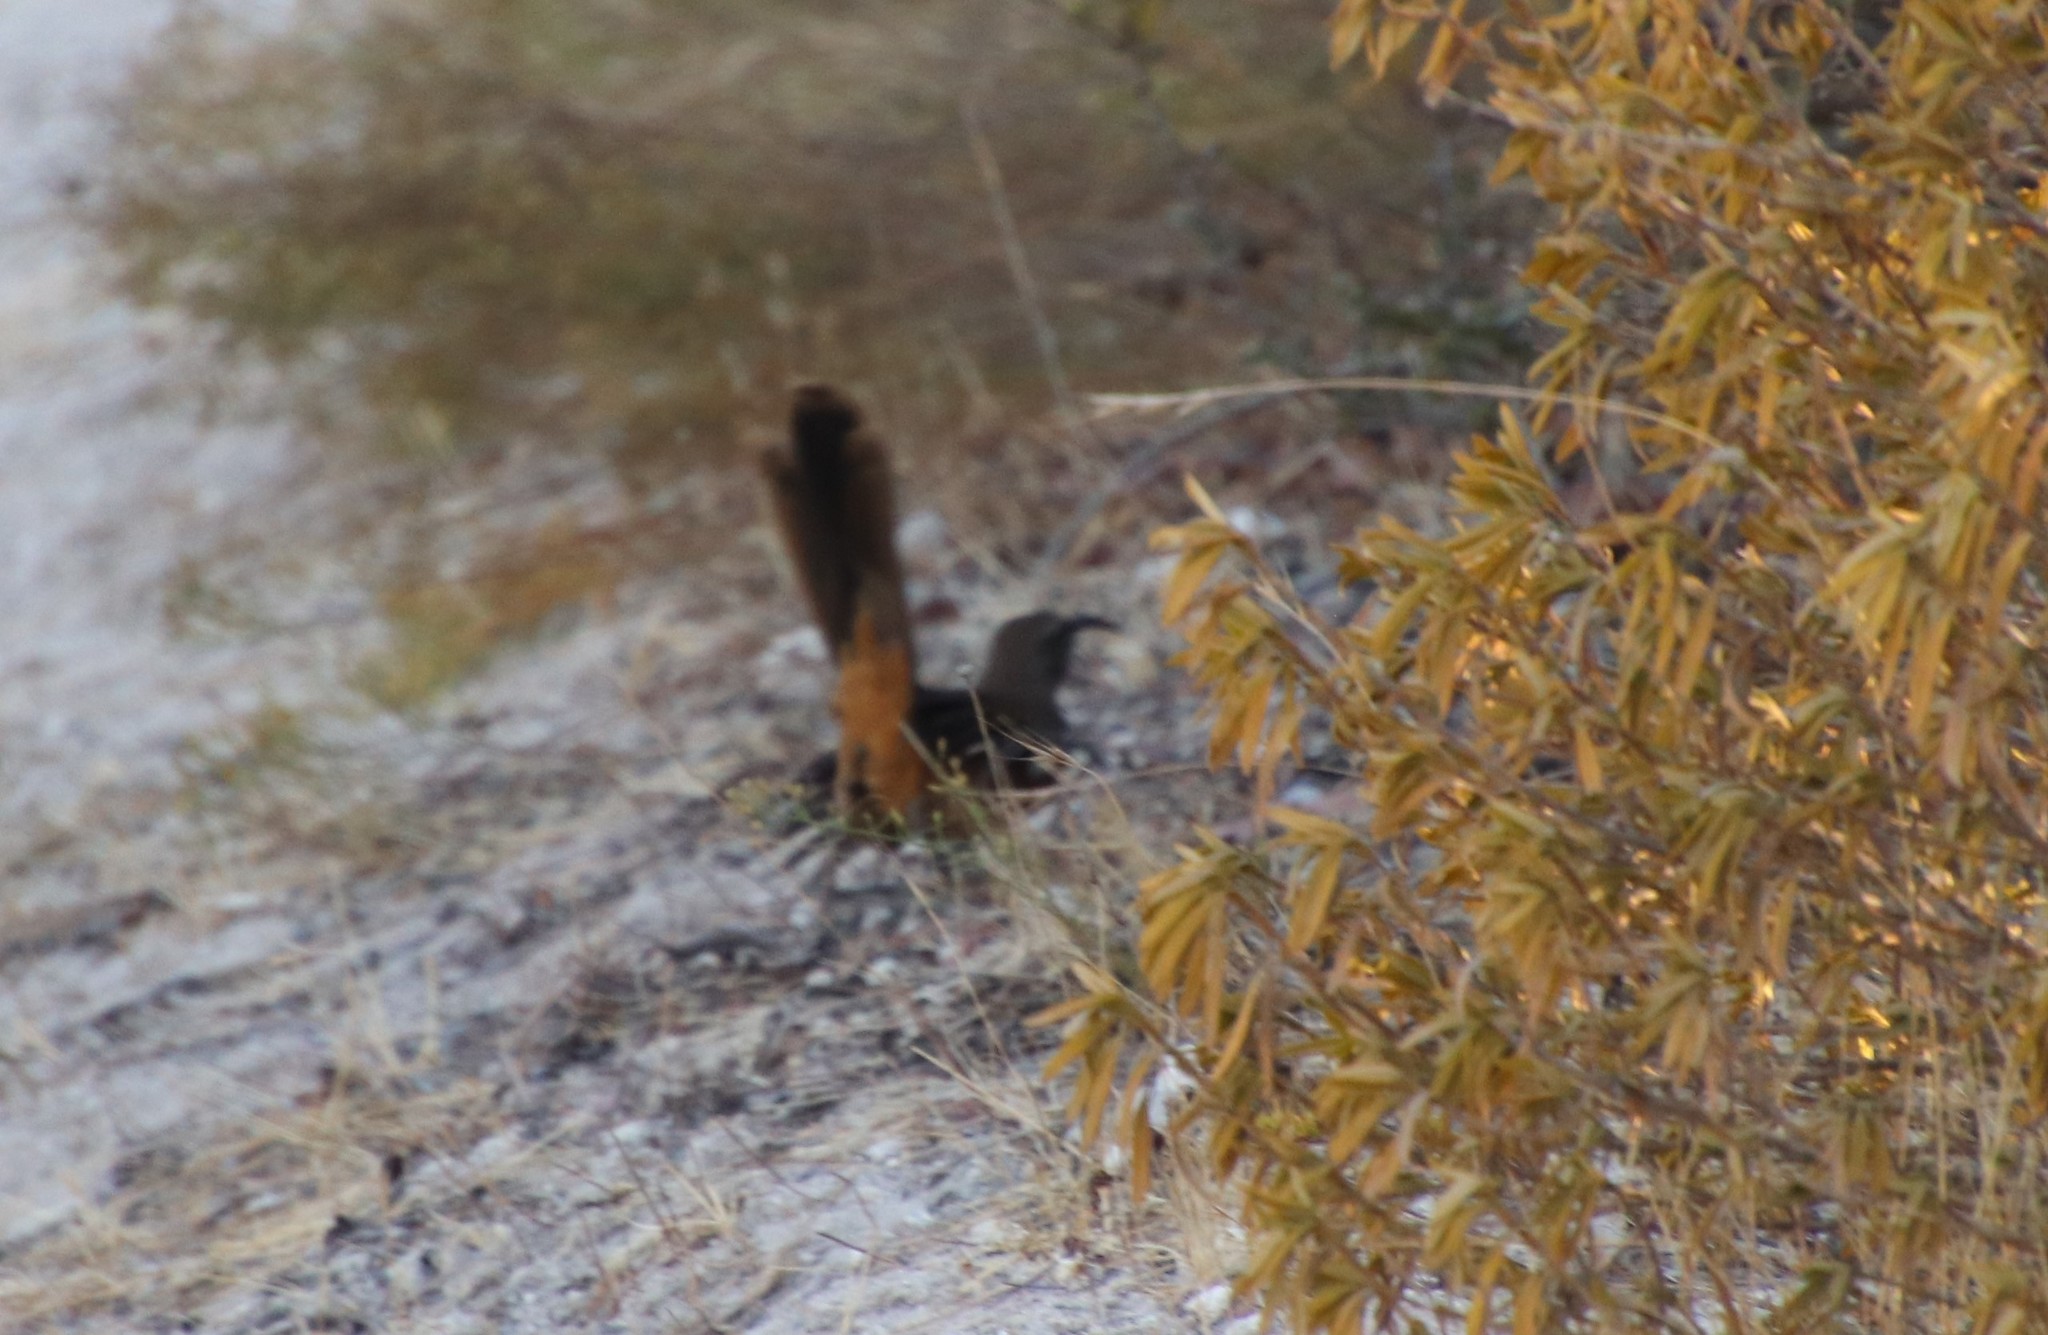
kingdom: Animalia
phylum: Chordata
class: Aves
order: Passeriformes
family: Mimidae
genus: Toxostoma
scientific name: Toxostoma redivivum
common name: California thrasher
